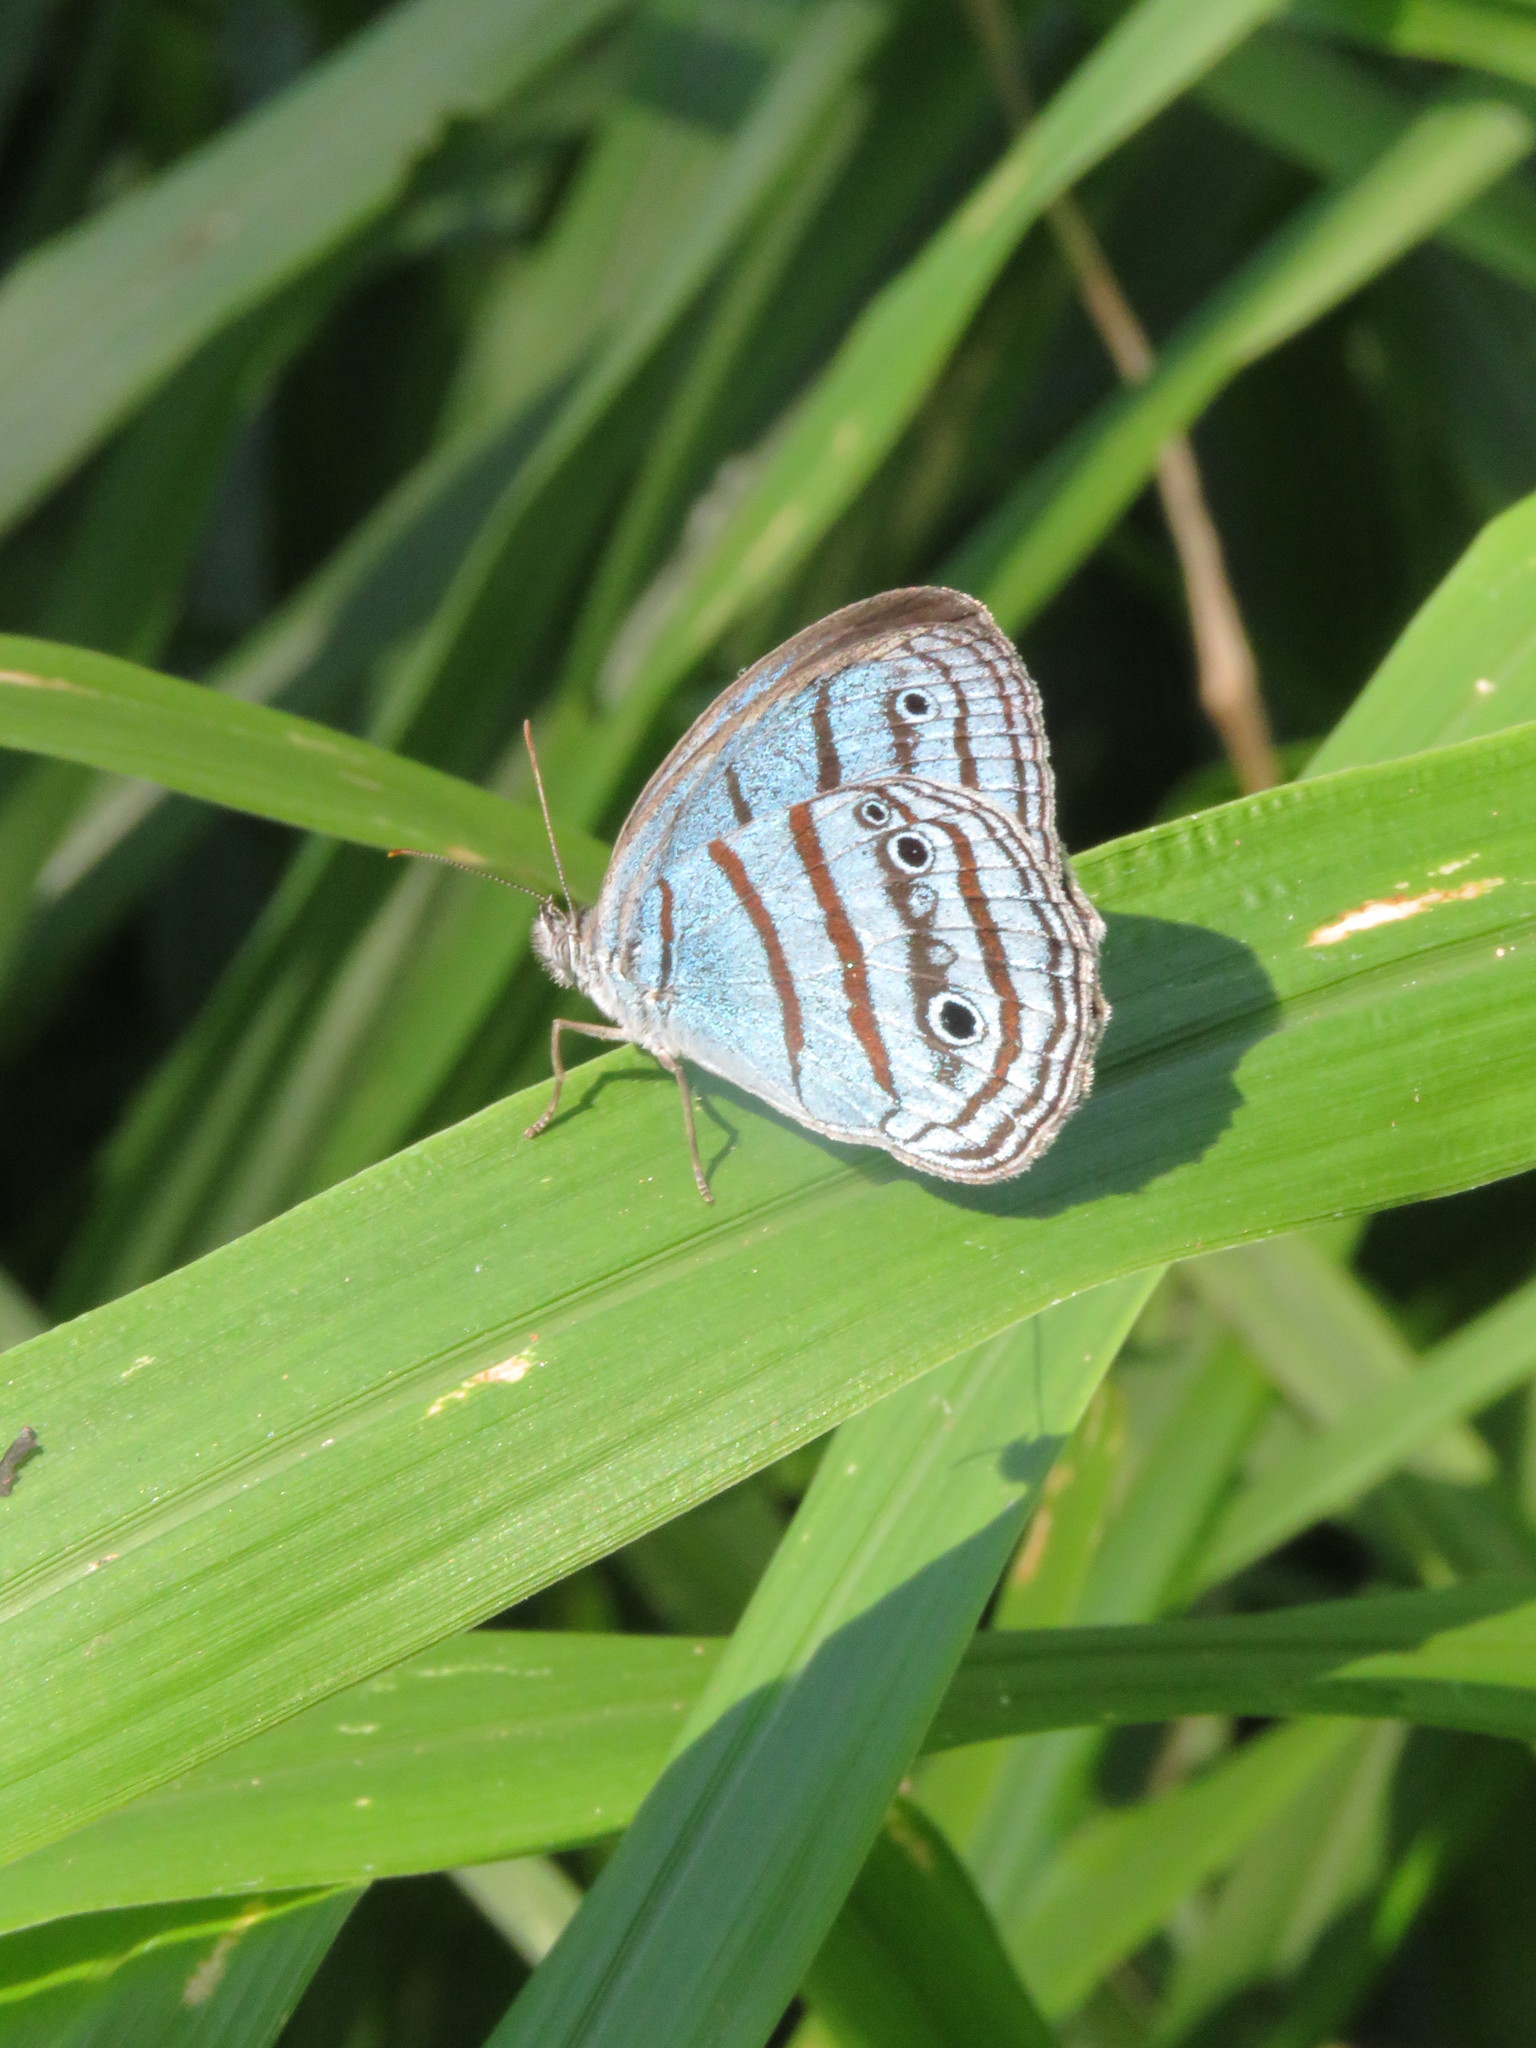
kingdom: Animalia
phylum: Arthropoda
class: Insecta
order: Lepidoptera
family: Nymphalidae
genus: Euptychia
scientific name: Euptychia crantor
